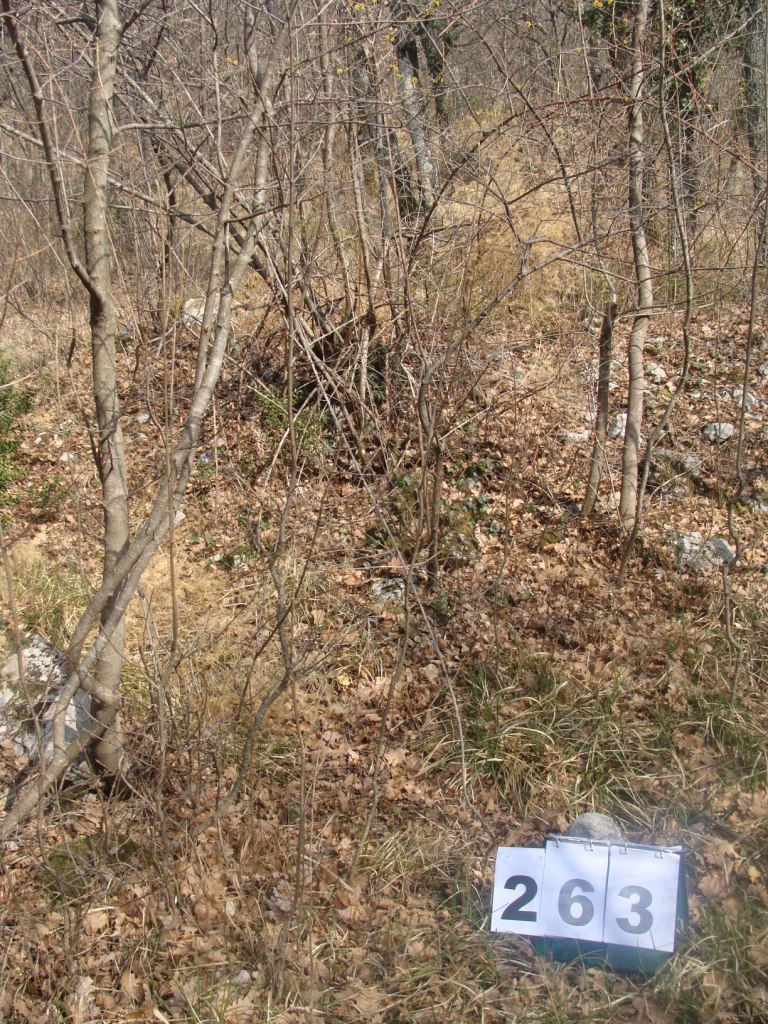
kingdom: Plantae
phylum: Tracheophyta
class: Magnoliopsida
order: Cornales
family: Cornaceae
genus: Cornus
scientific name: Cornus mas
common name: Cornelian-cherry
